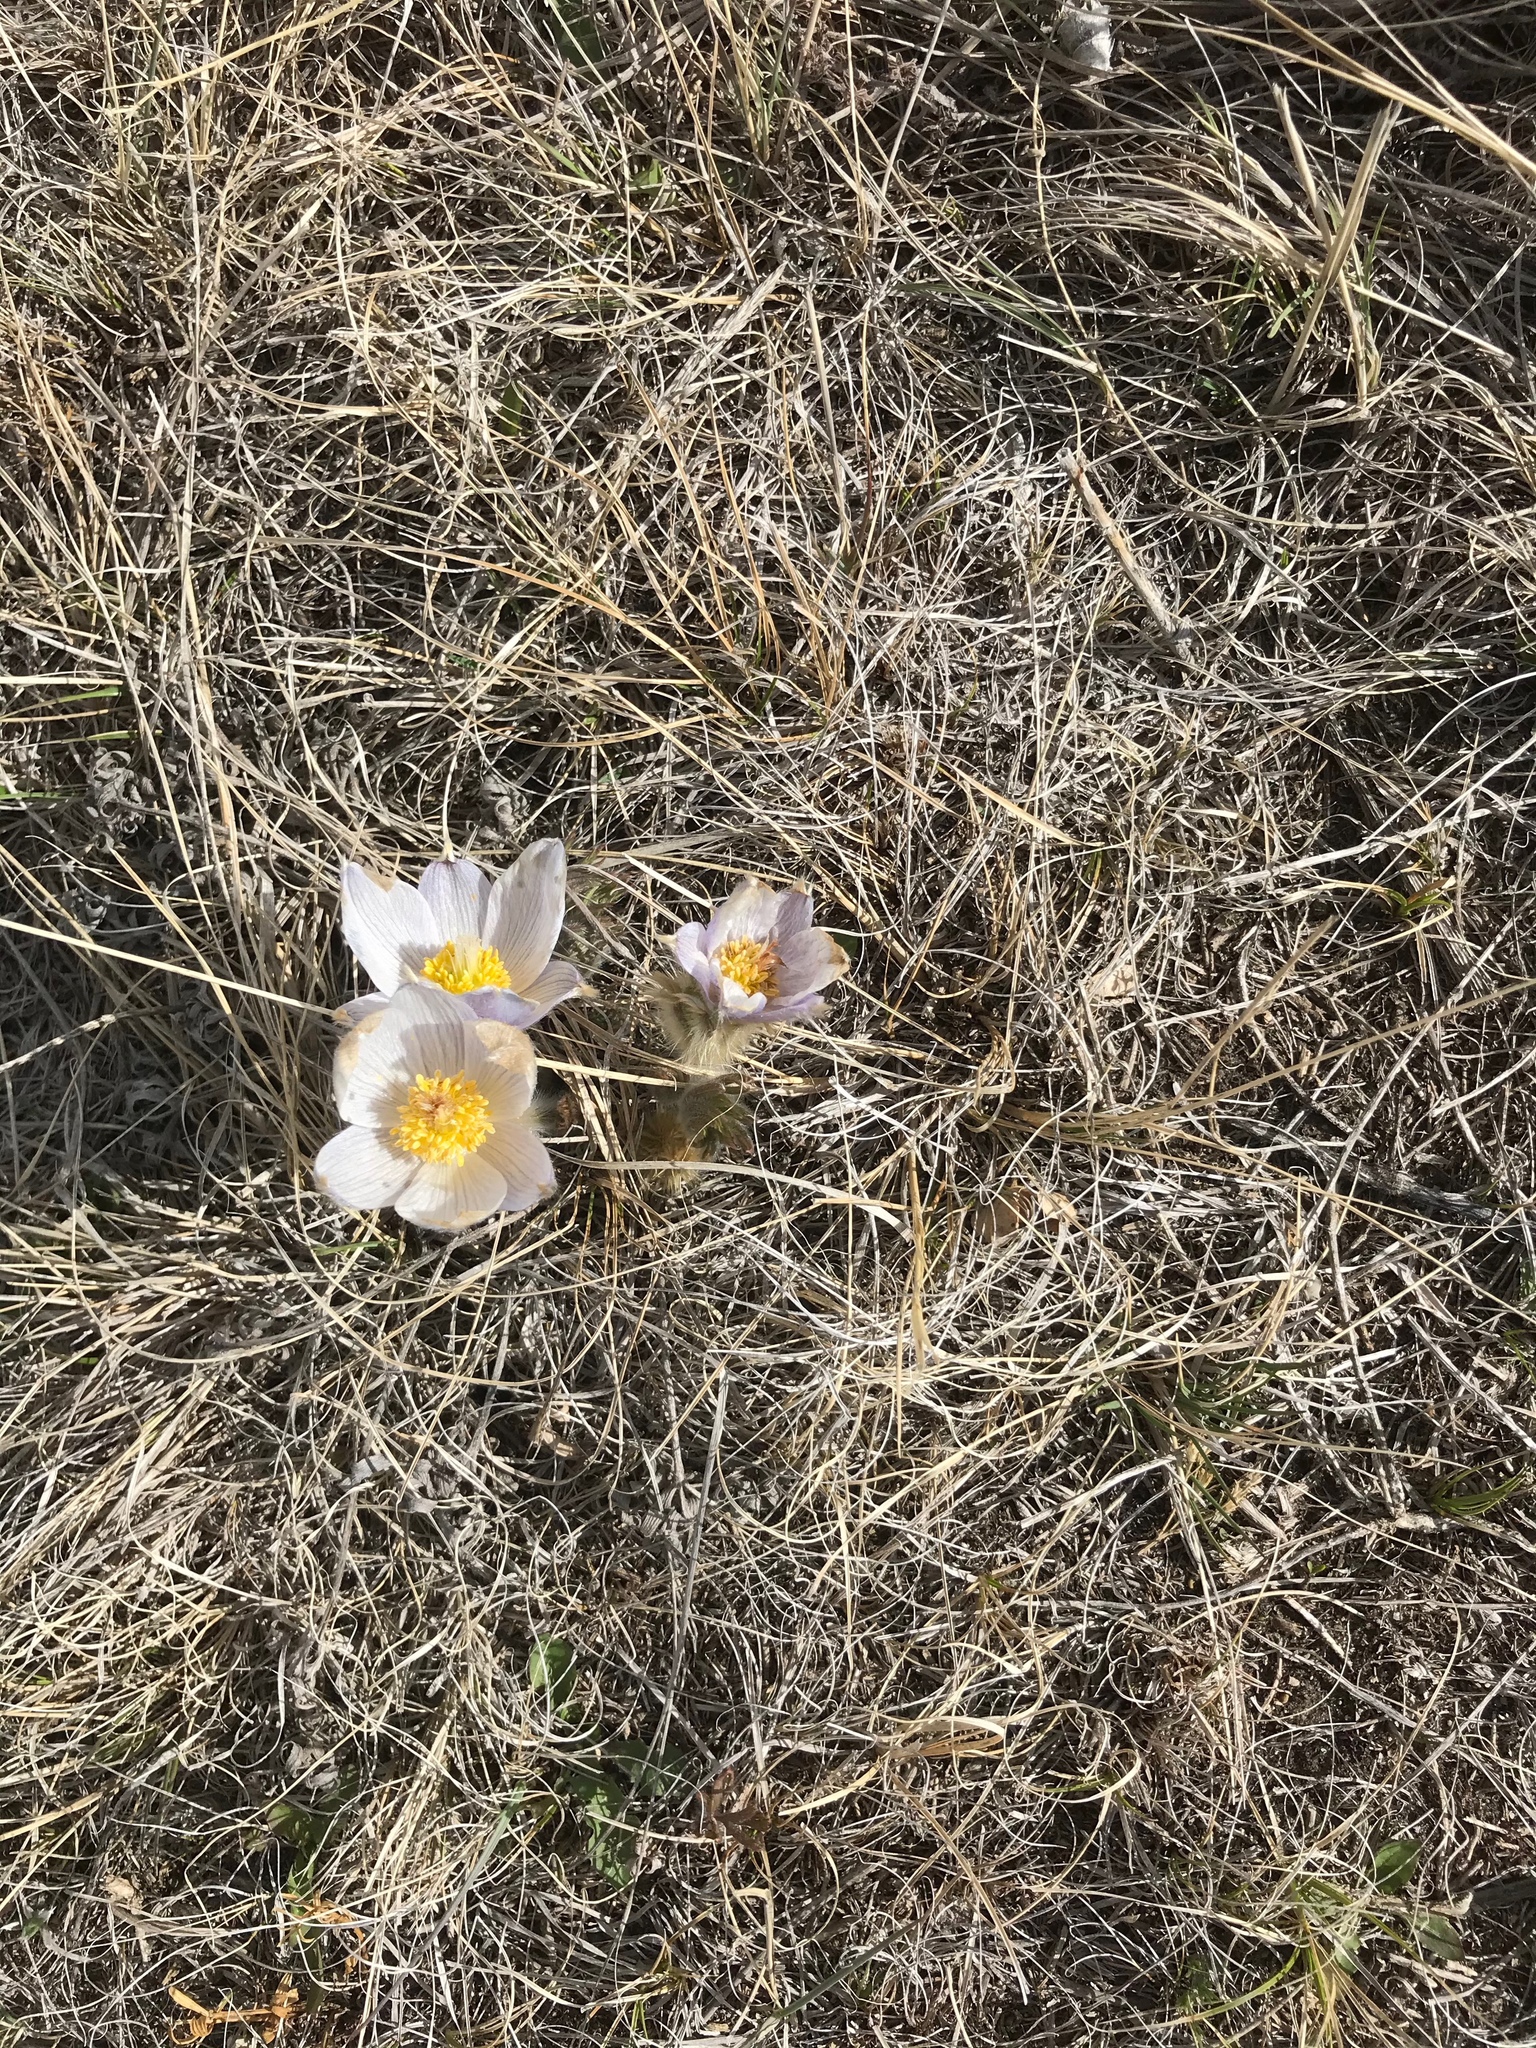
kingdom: Plantae
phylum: Tracheophyta
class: Magnoliopsida
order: Ranunculales
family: Ranunculaceae
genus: Pulsatilla
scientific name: Pulsatilla nuttalliana
